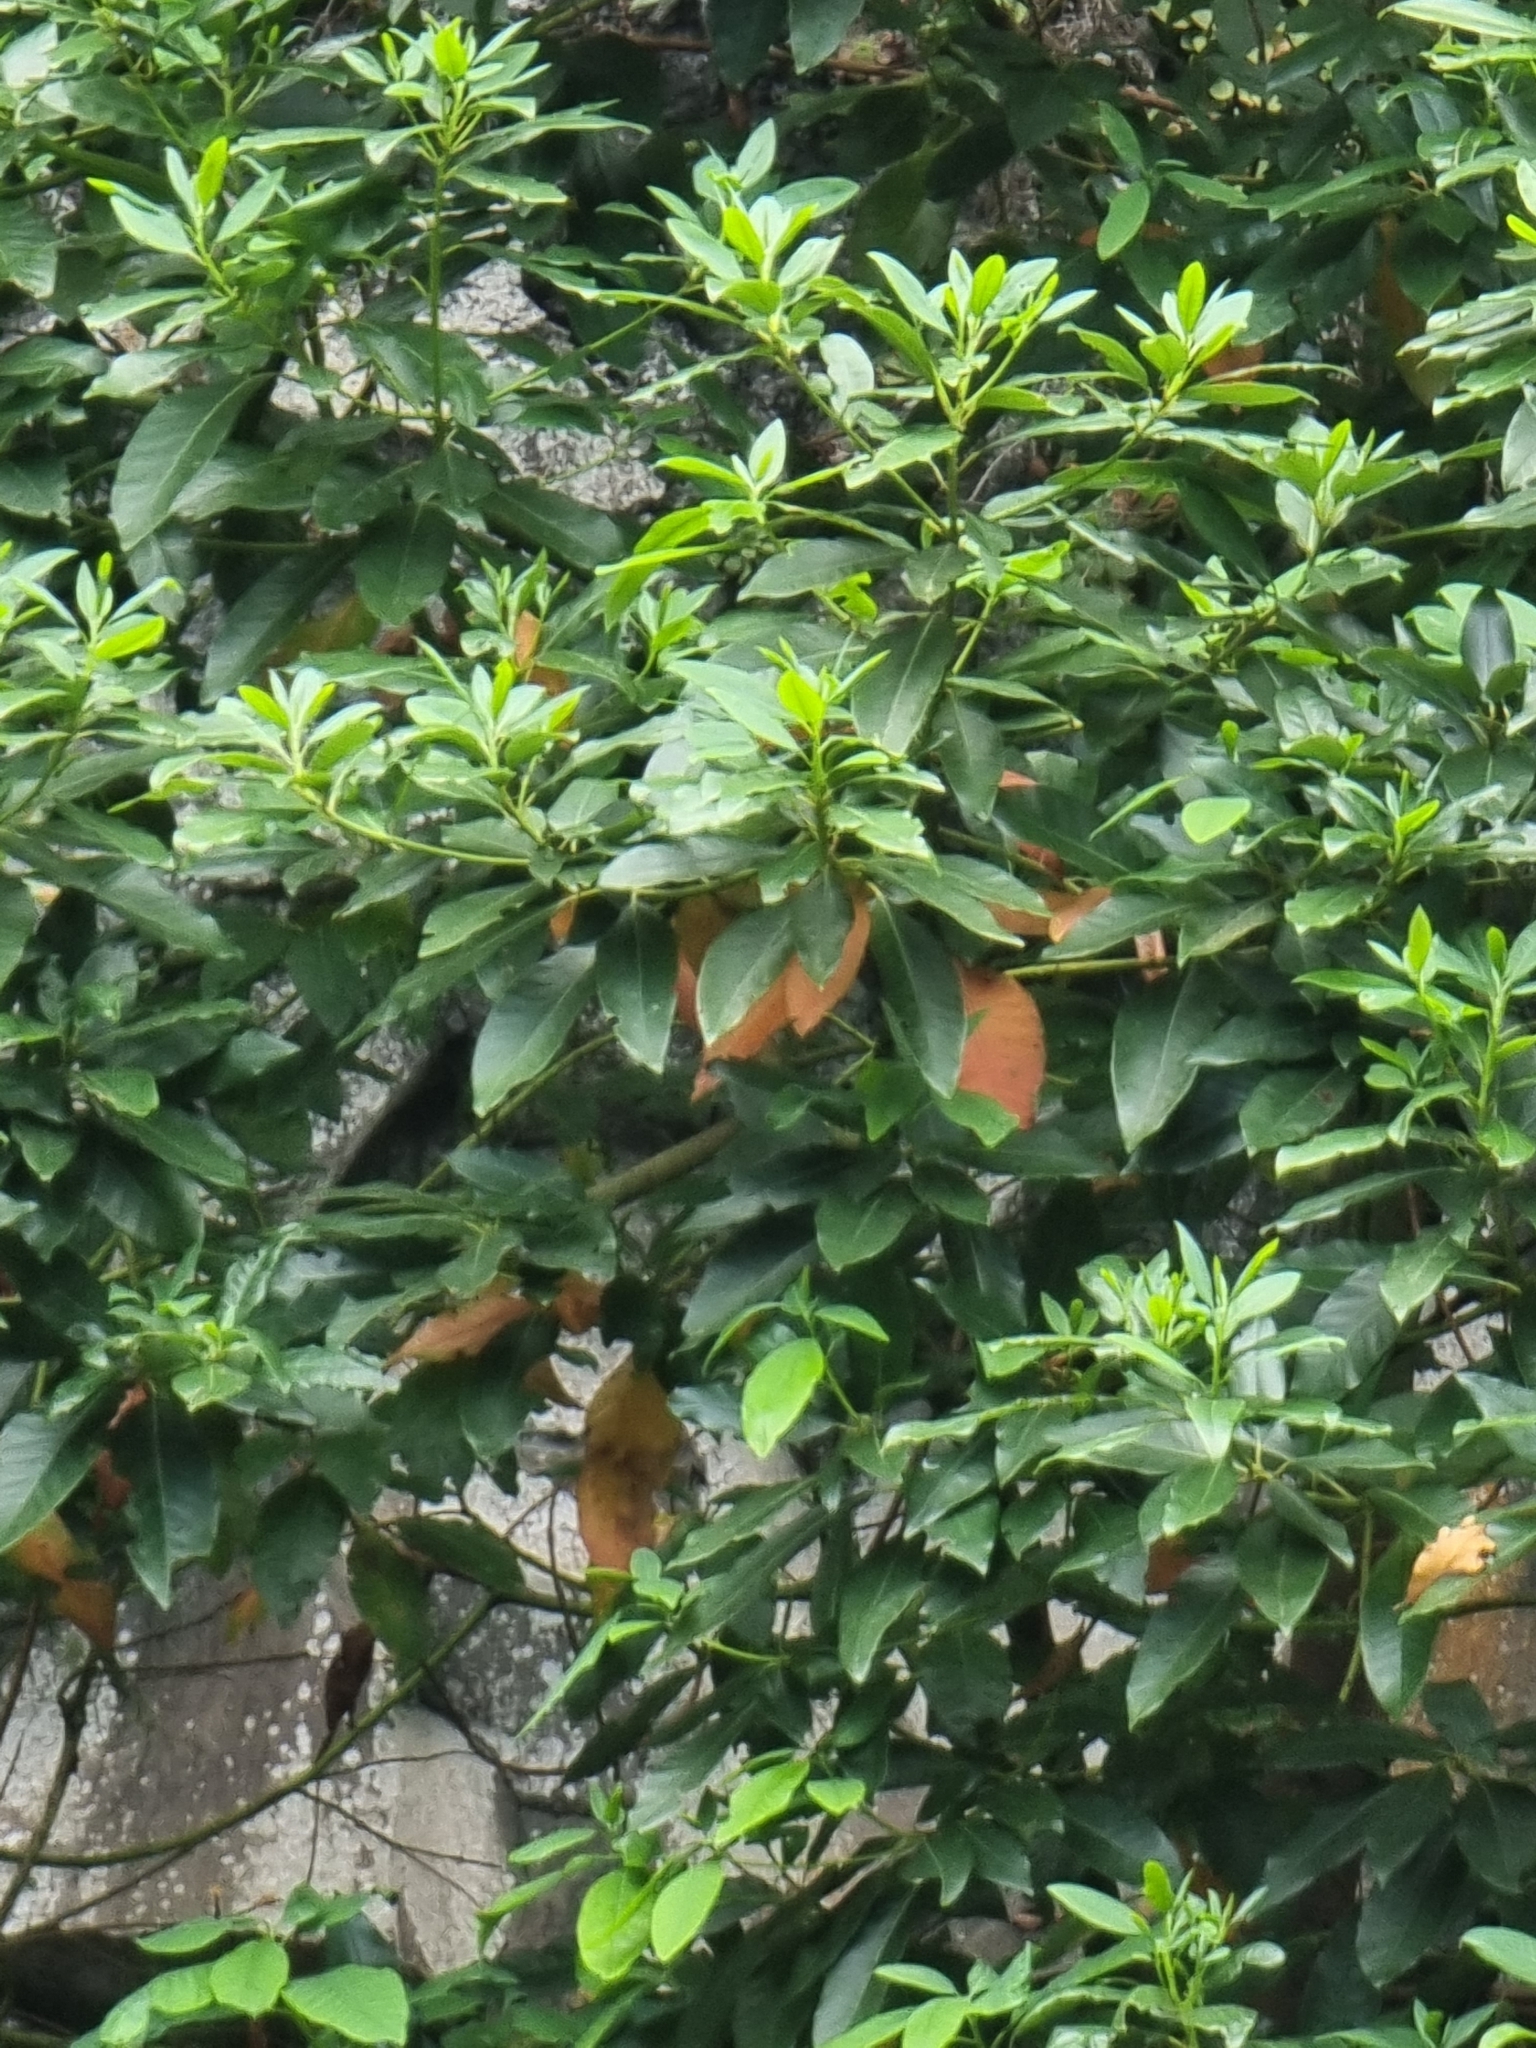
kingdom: Plantae
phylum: Tracheophyta
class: Magnoliopsida
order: Laurales
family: Lauraceae
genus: Persea
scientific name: Persea indica
